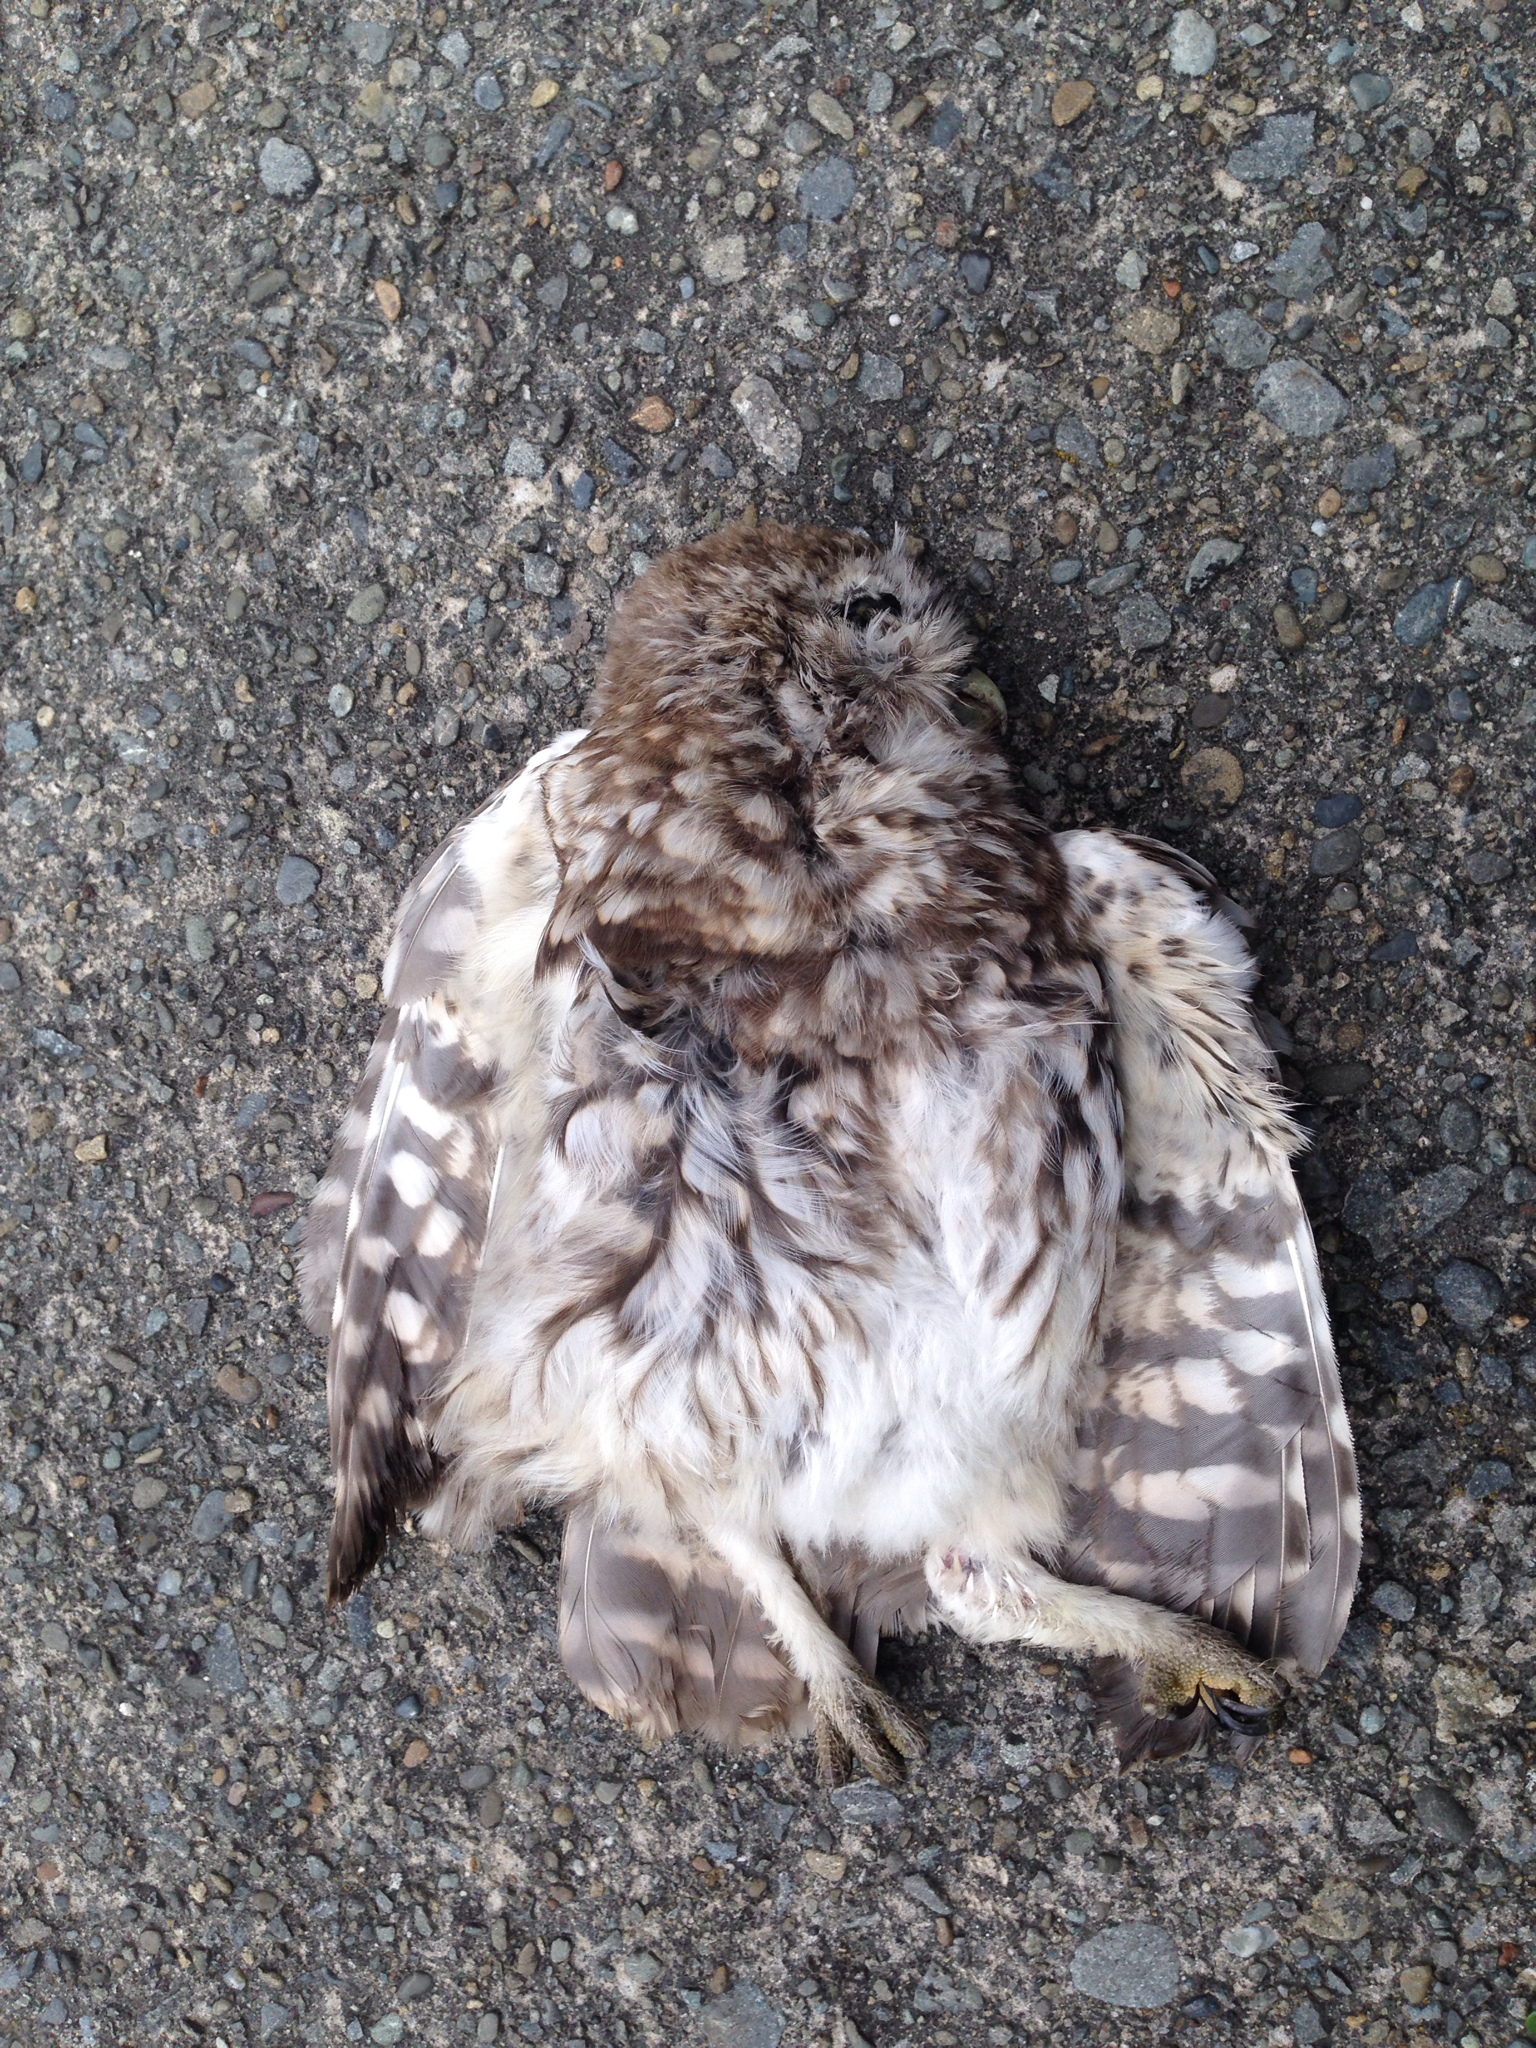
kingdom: Animalia
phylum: Chordata
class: Aves
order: Strigiformes
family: Strigidae
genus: Athene
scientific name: Athene noctua
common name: Little owl
